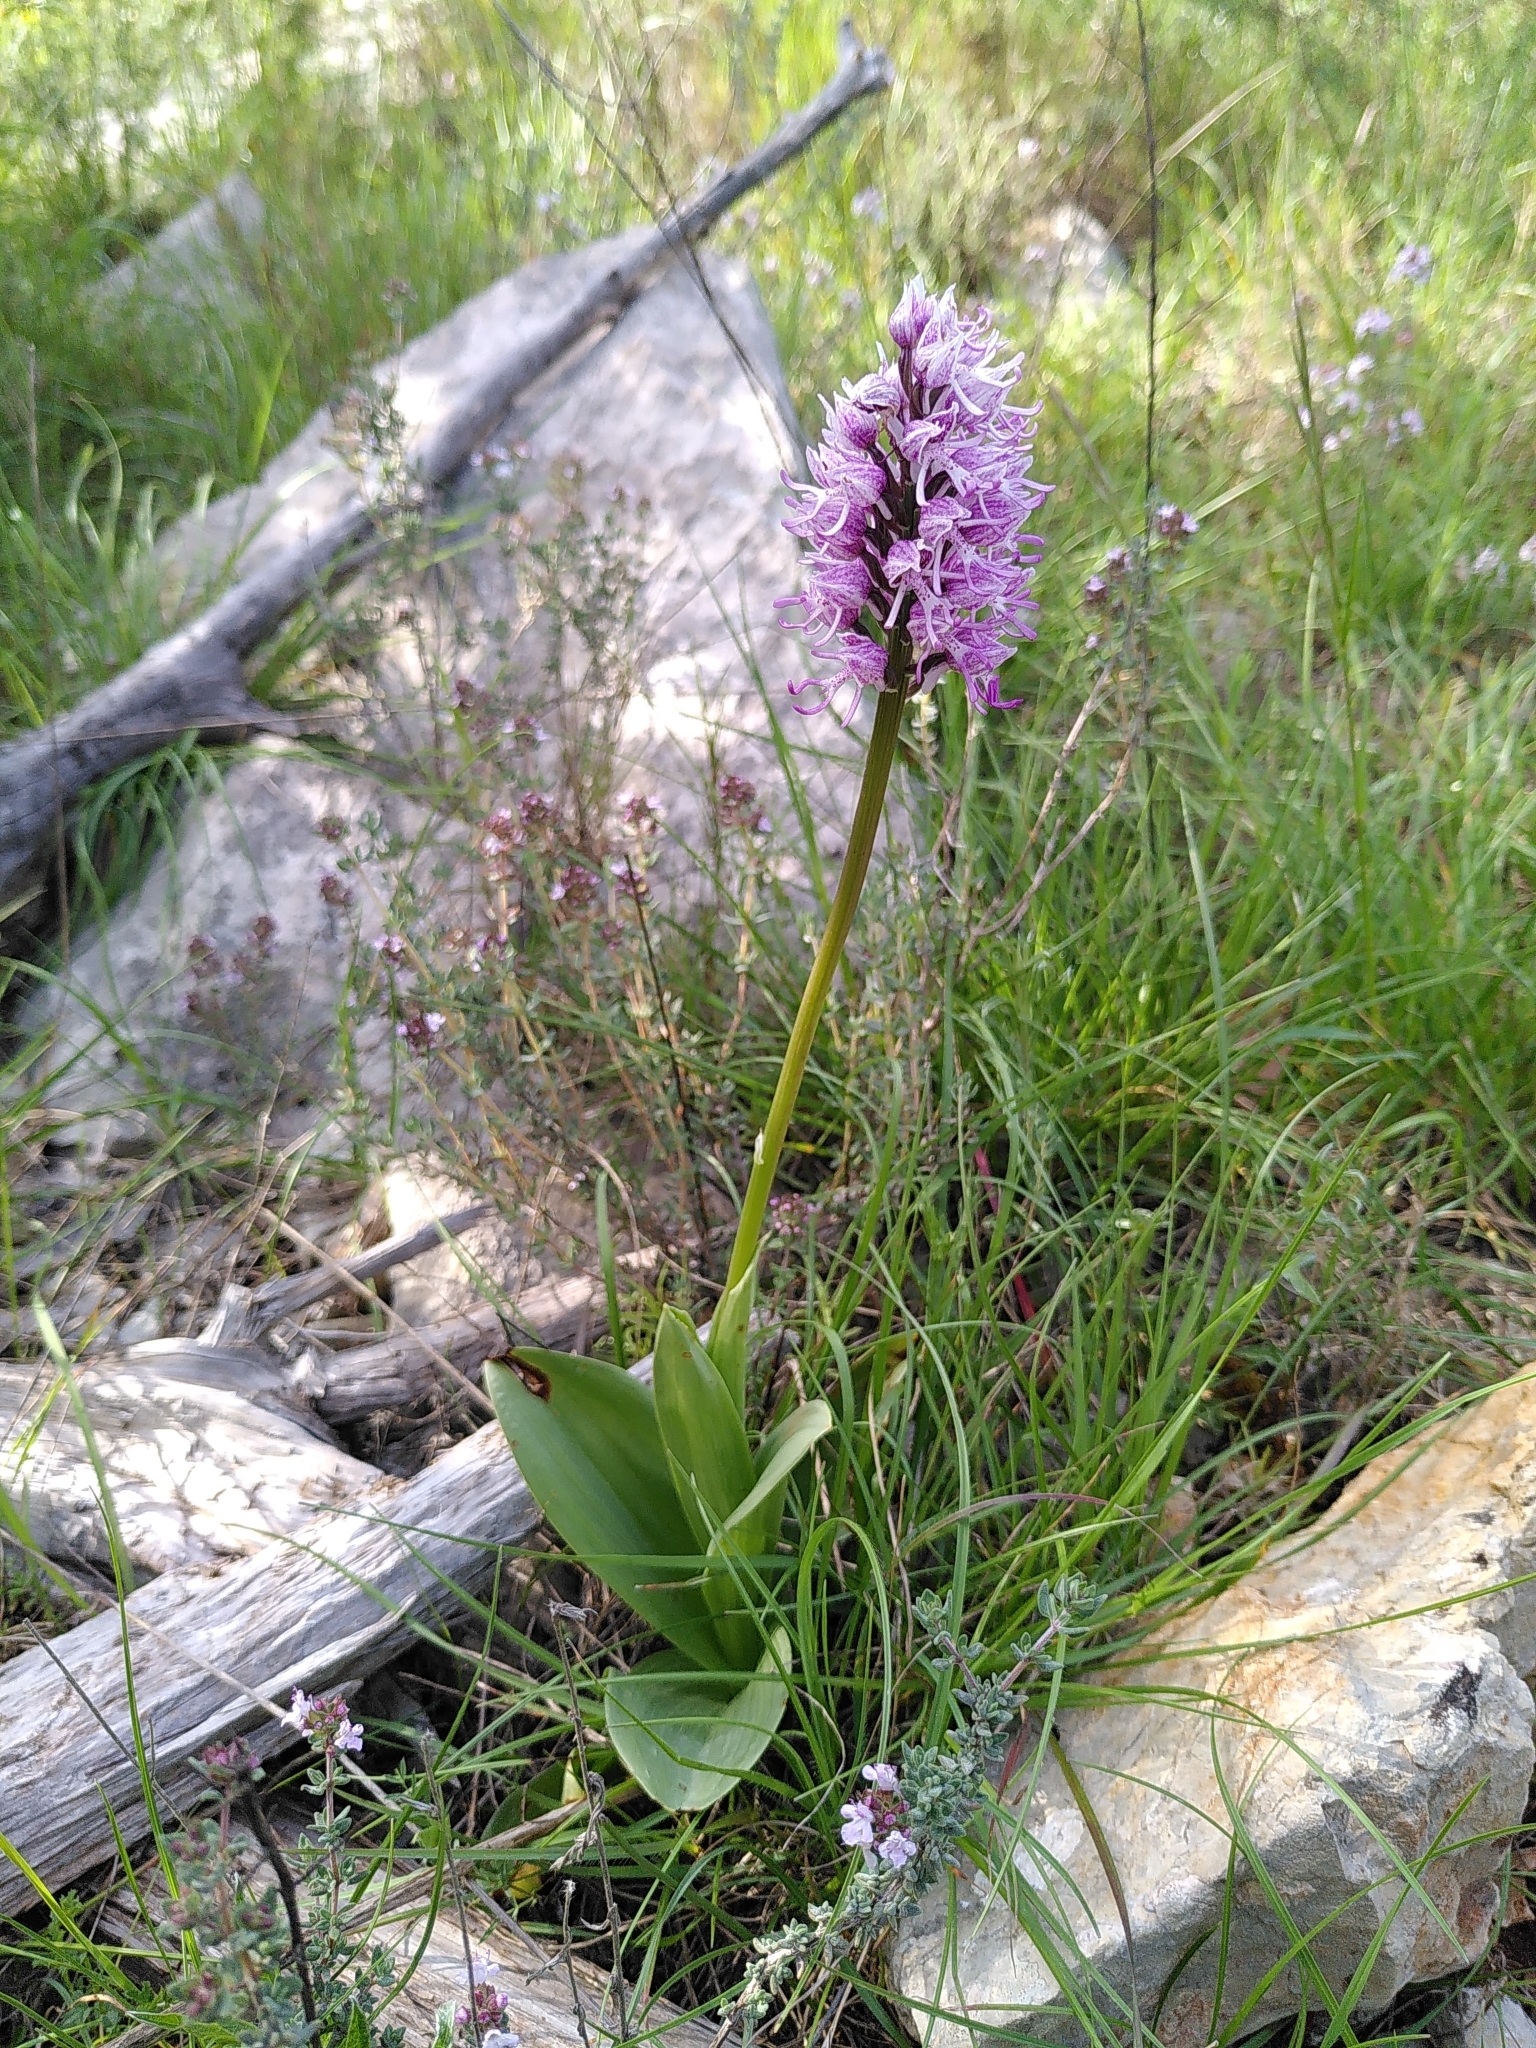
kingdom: Plantae
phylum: Tracheophyta
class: Liliopsida
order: Asparagales
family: Orchidaceae
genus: Orchis
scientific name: Orchis simia
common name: Monkey orchid
